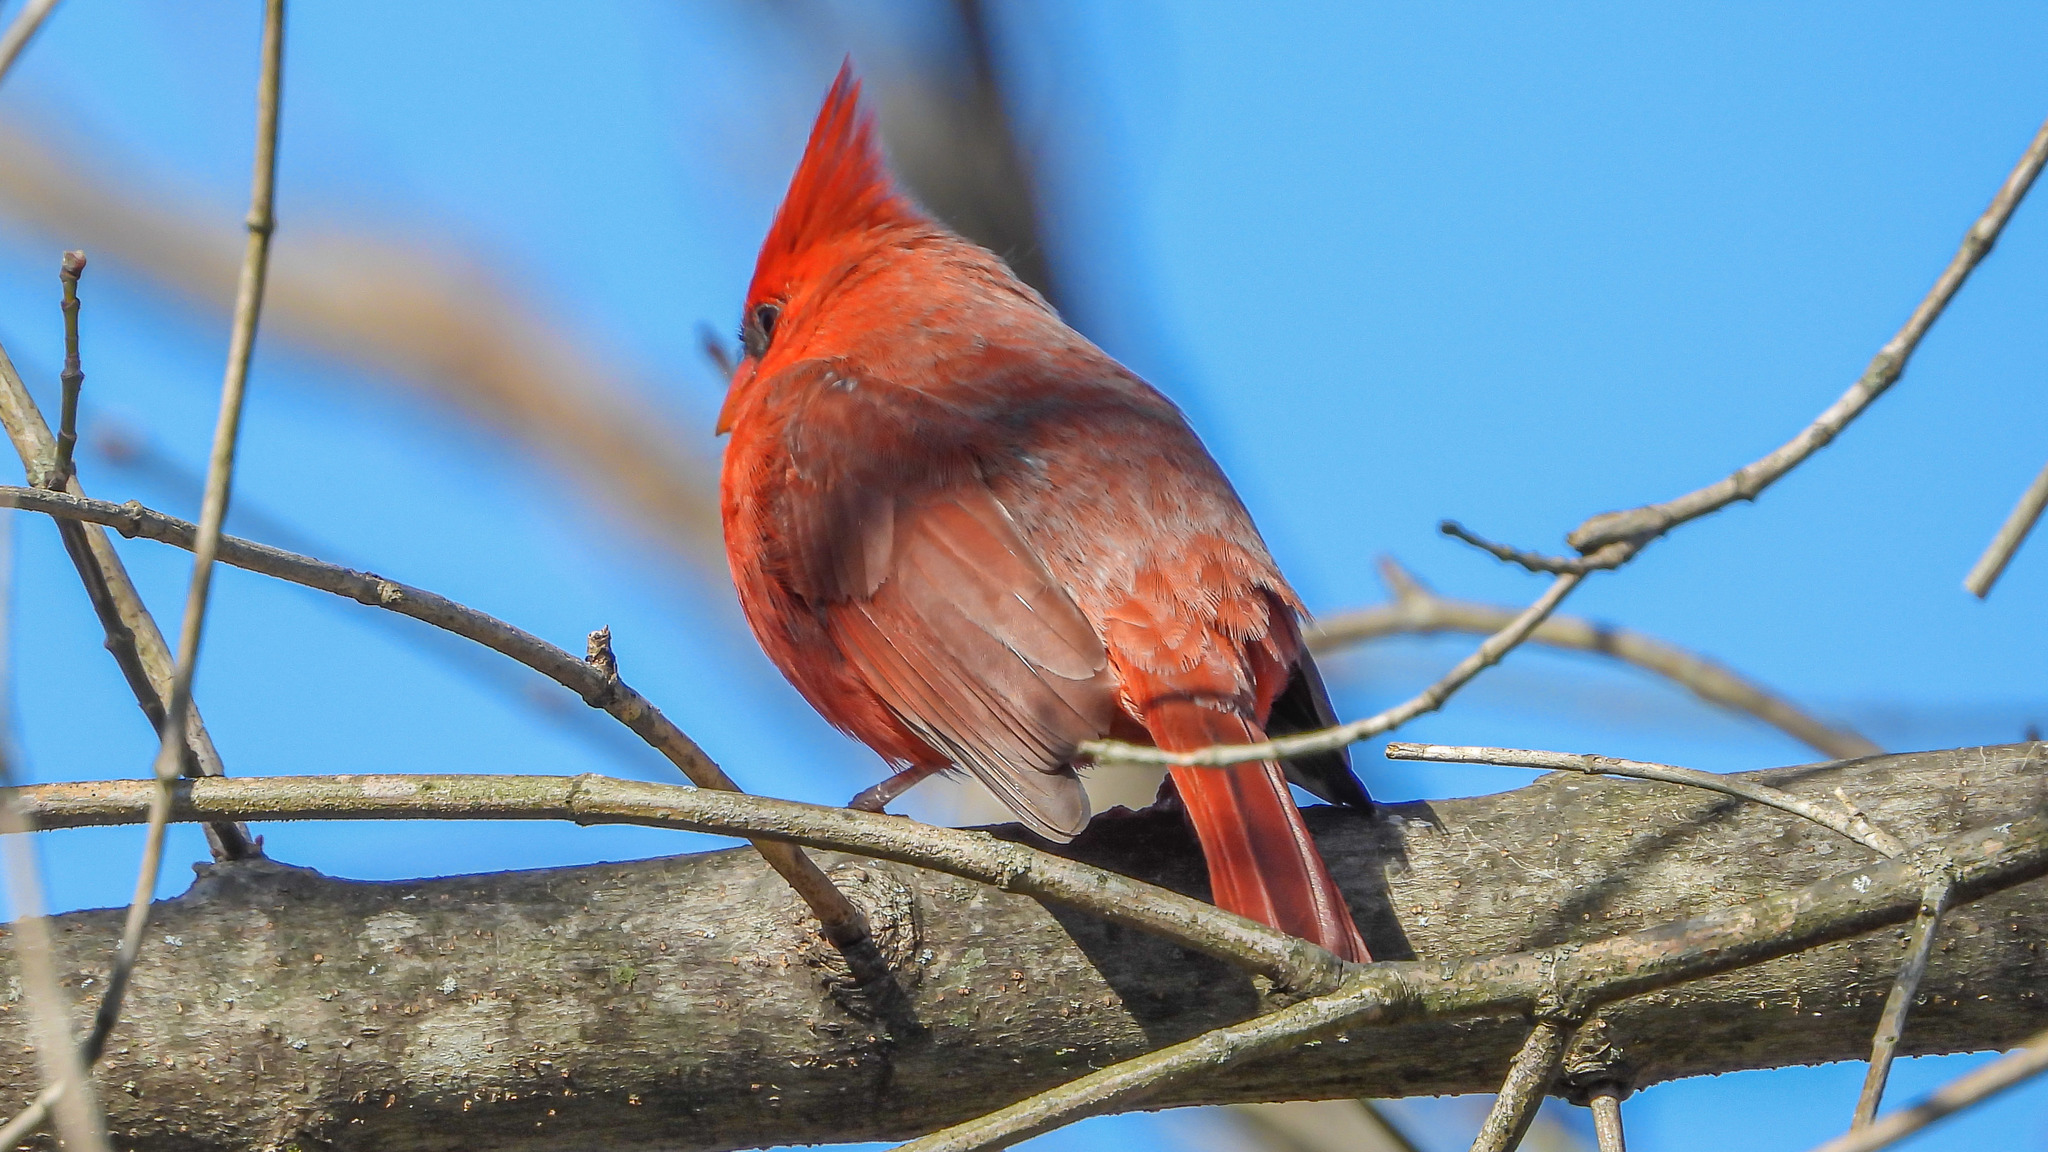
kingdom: Animalia
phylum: Chordata
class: Aves
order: Passeriformes
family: Cardinalidae
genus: Cardinalis
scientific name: Cardinalis cardinalis
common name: Northern cardinal
